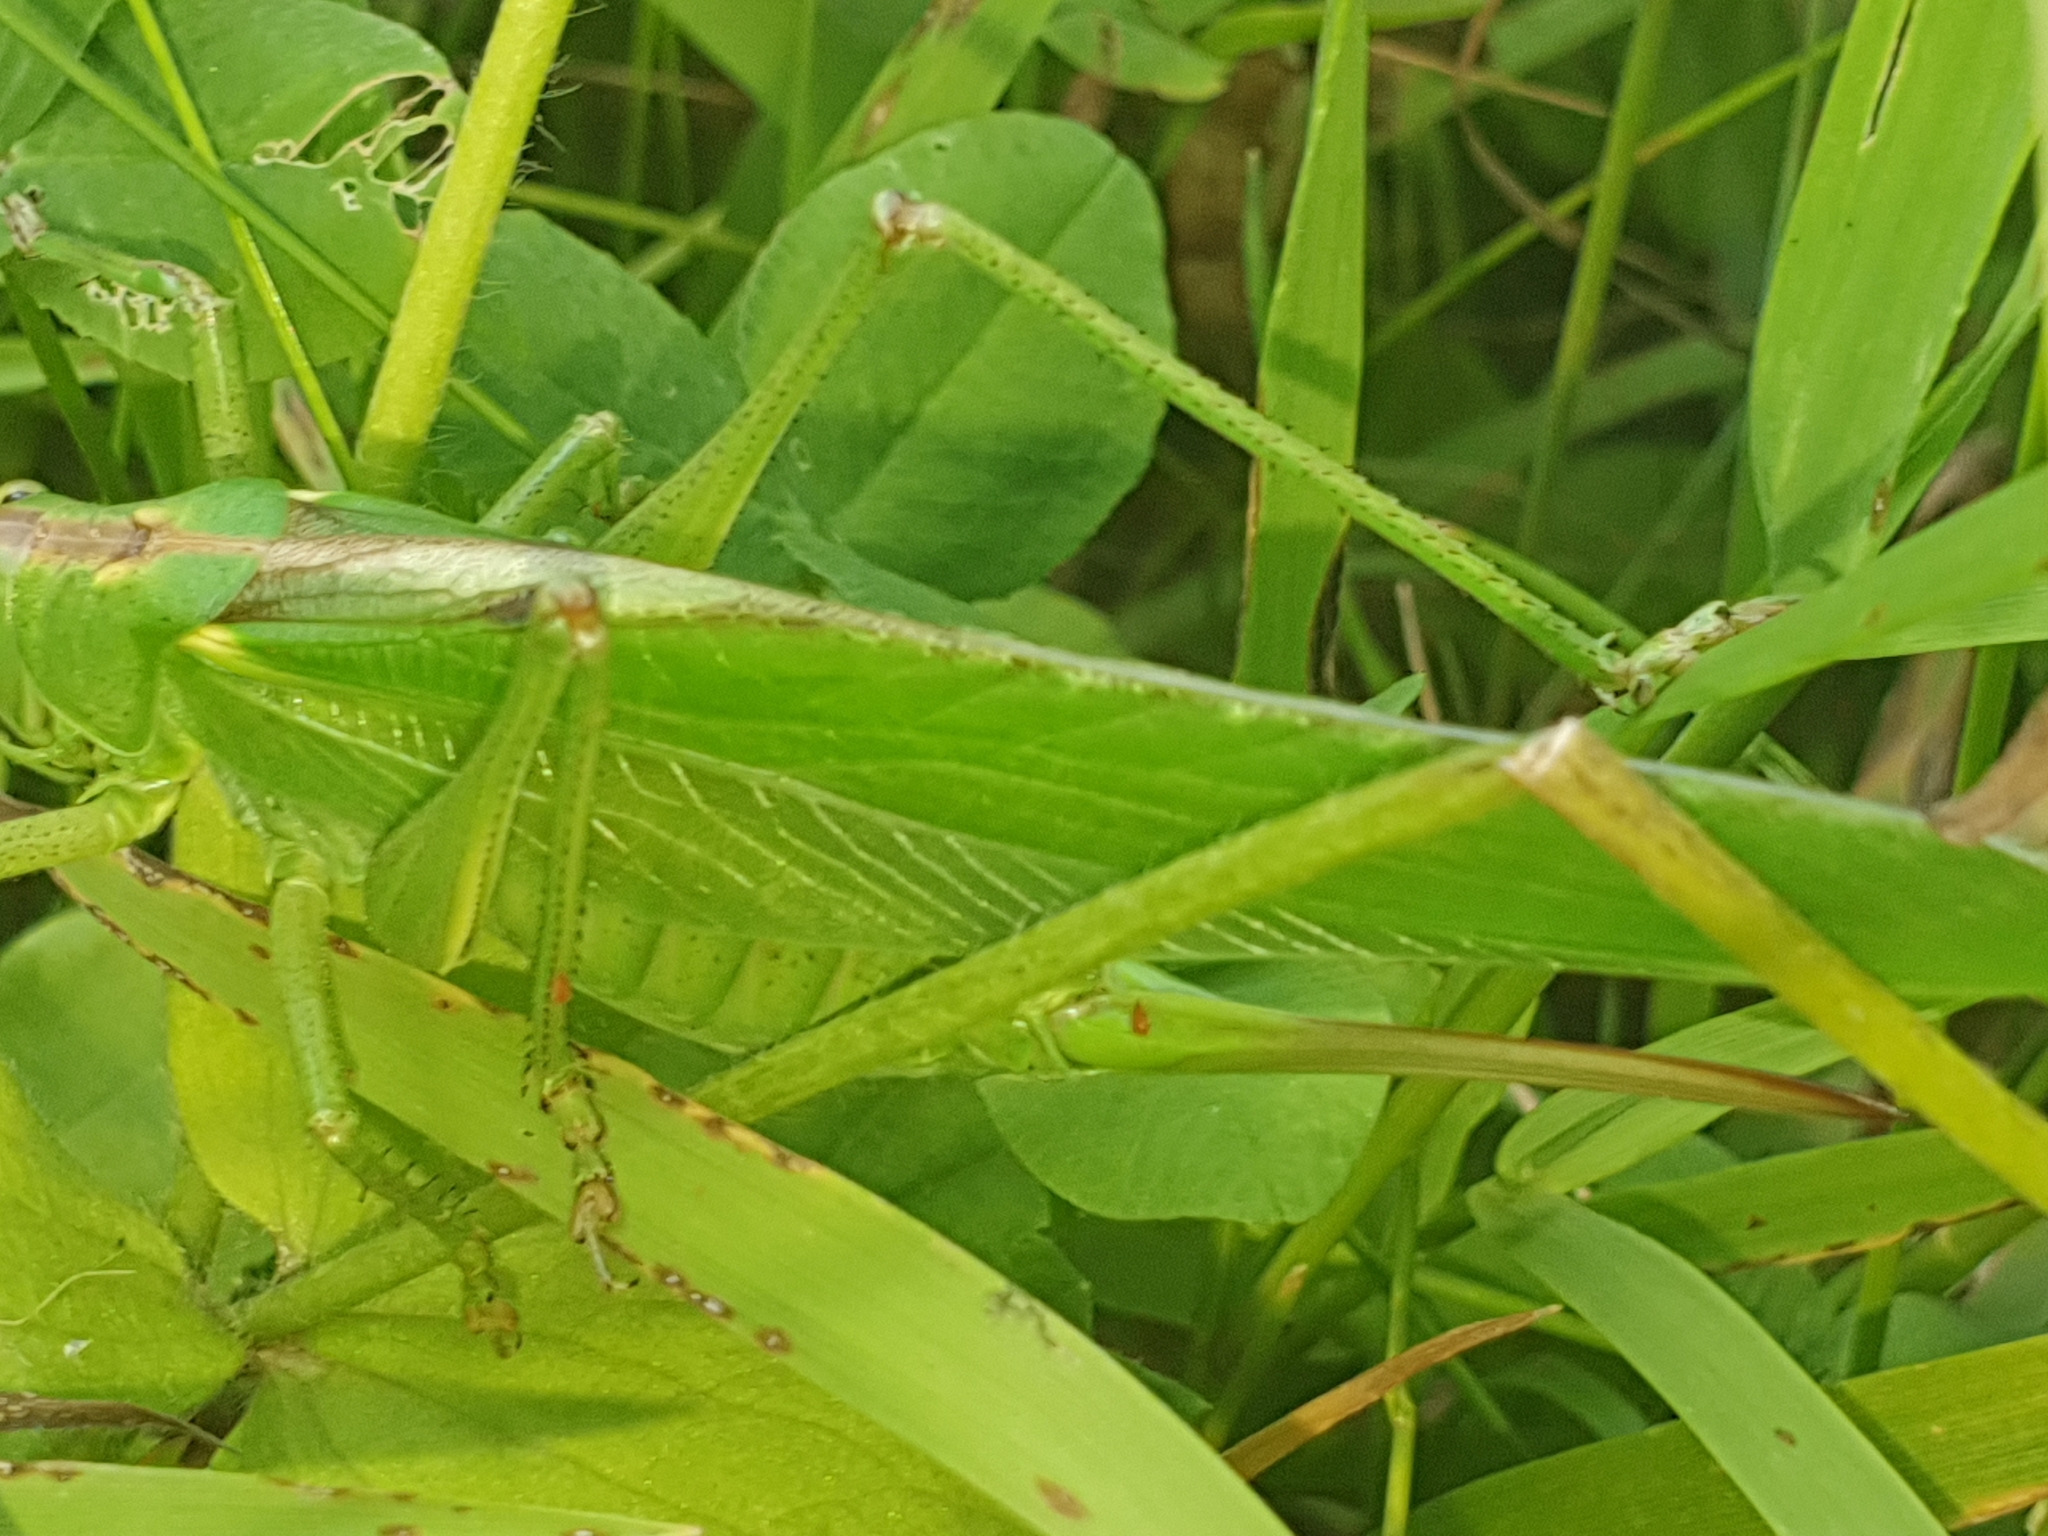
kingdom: Animalia
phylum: Arthropoda
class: Insecta
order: Orthoptera
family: Tettigoniidae
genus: Tettigonia
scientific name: Tettigonia viridissima
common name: Great green bush-cricket
